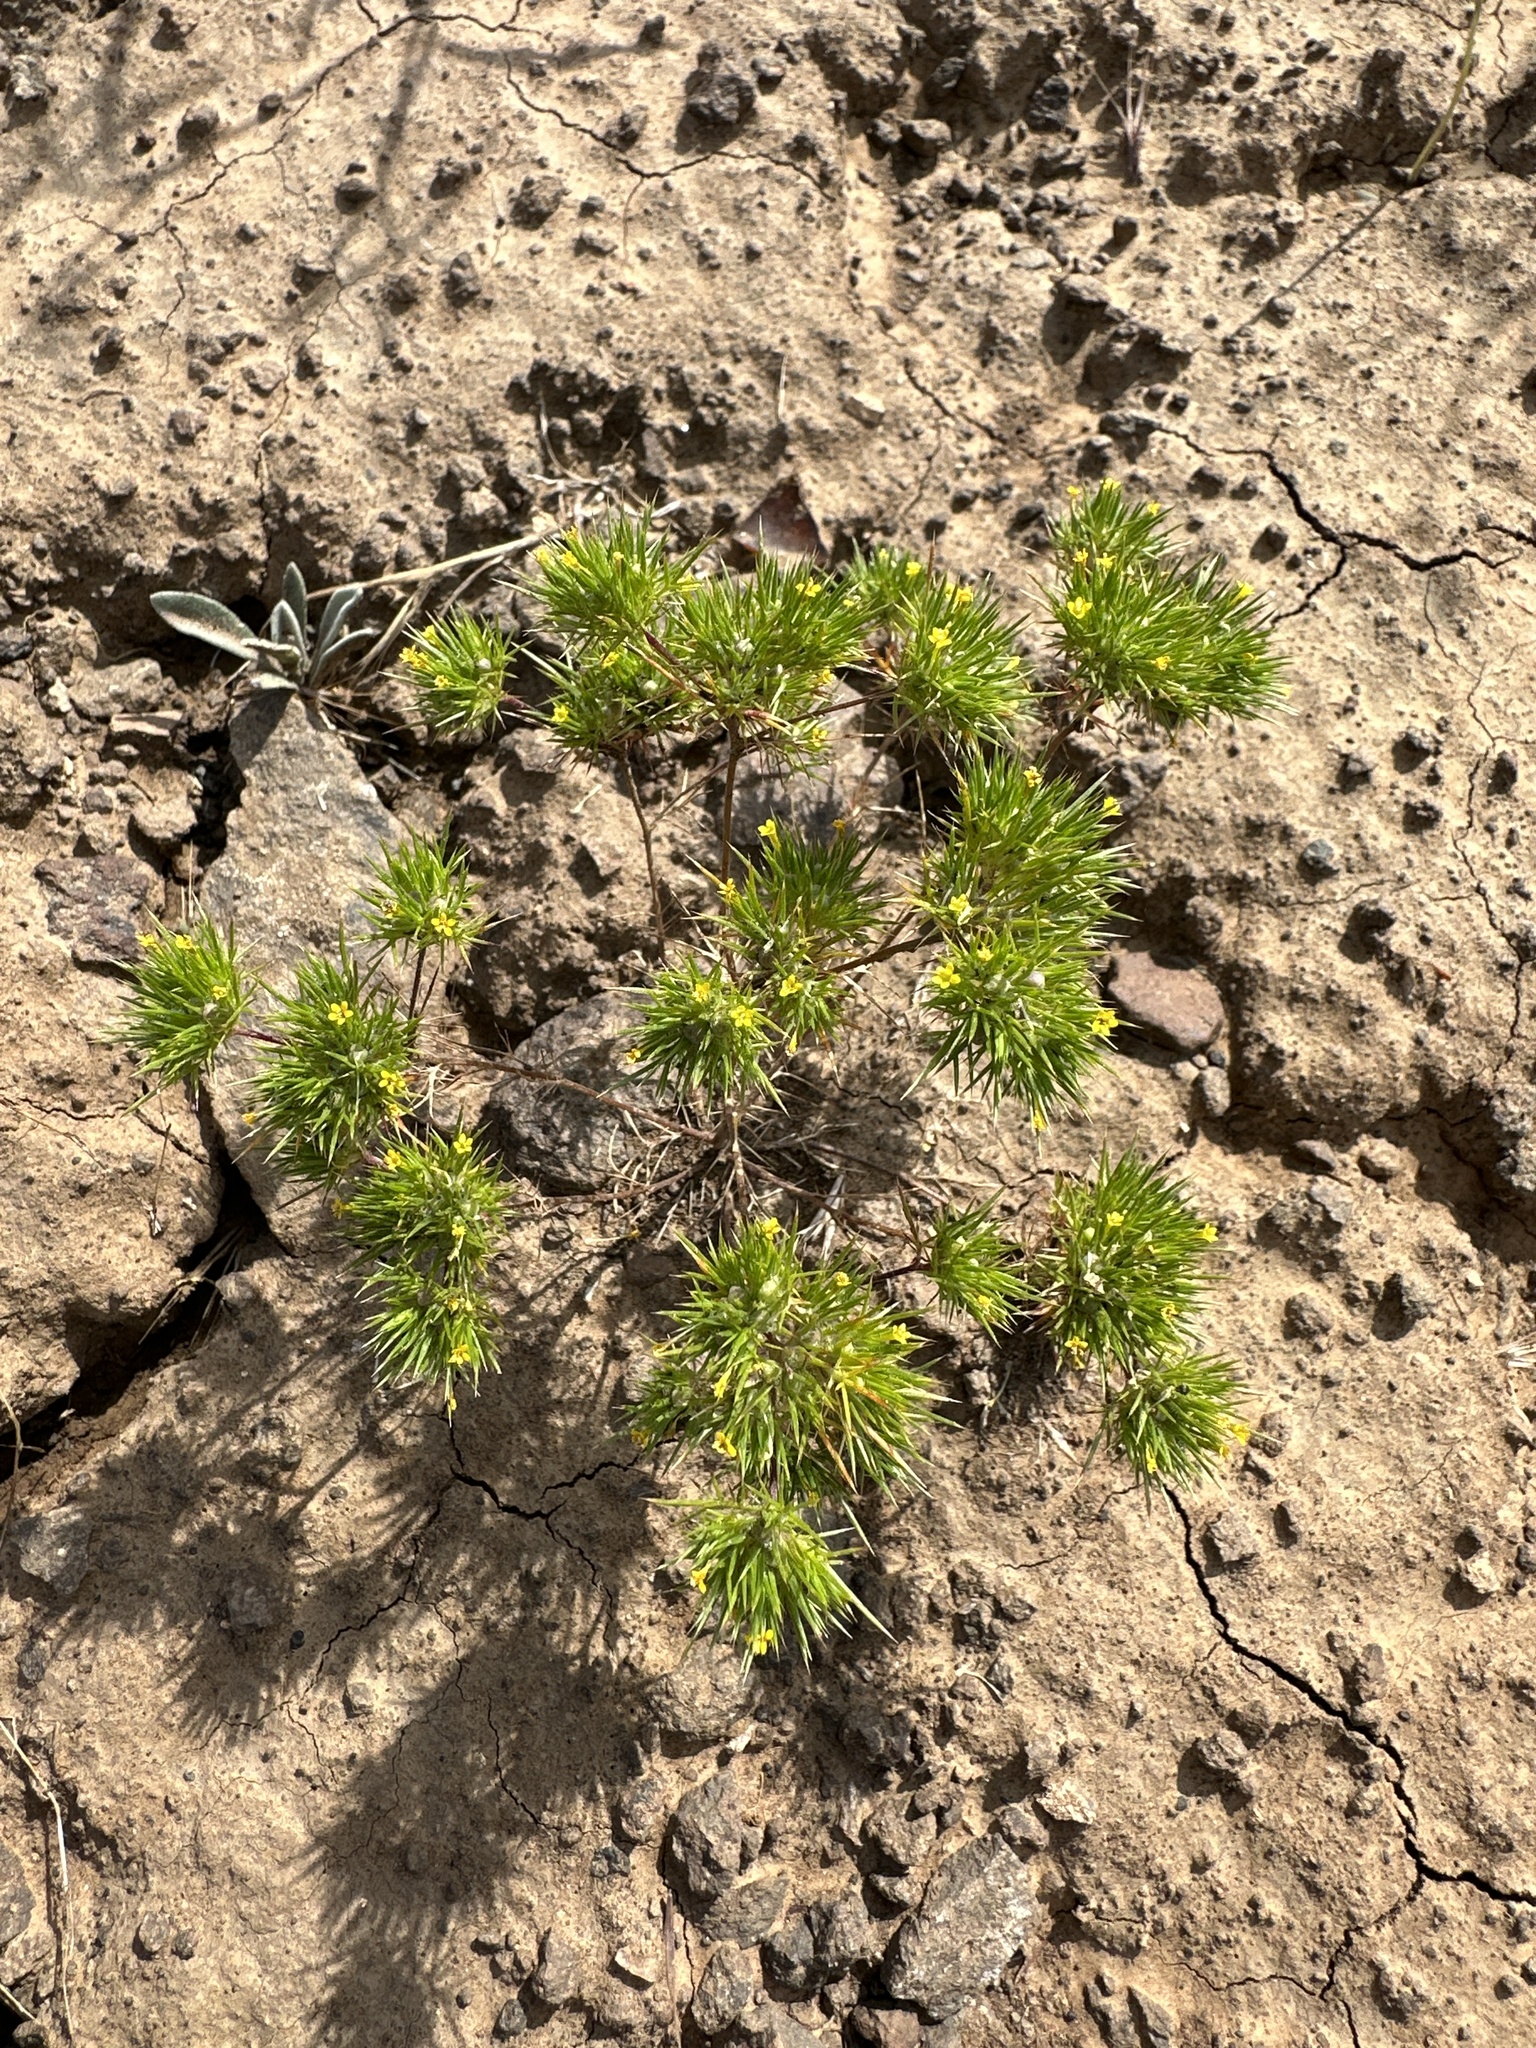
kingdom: Plantae
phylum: Tracheophyta
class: Magnoliopsida
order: Ericales
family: Polemoniaceae
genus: Navarretia
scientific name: Navarretia breweri
